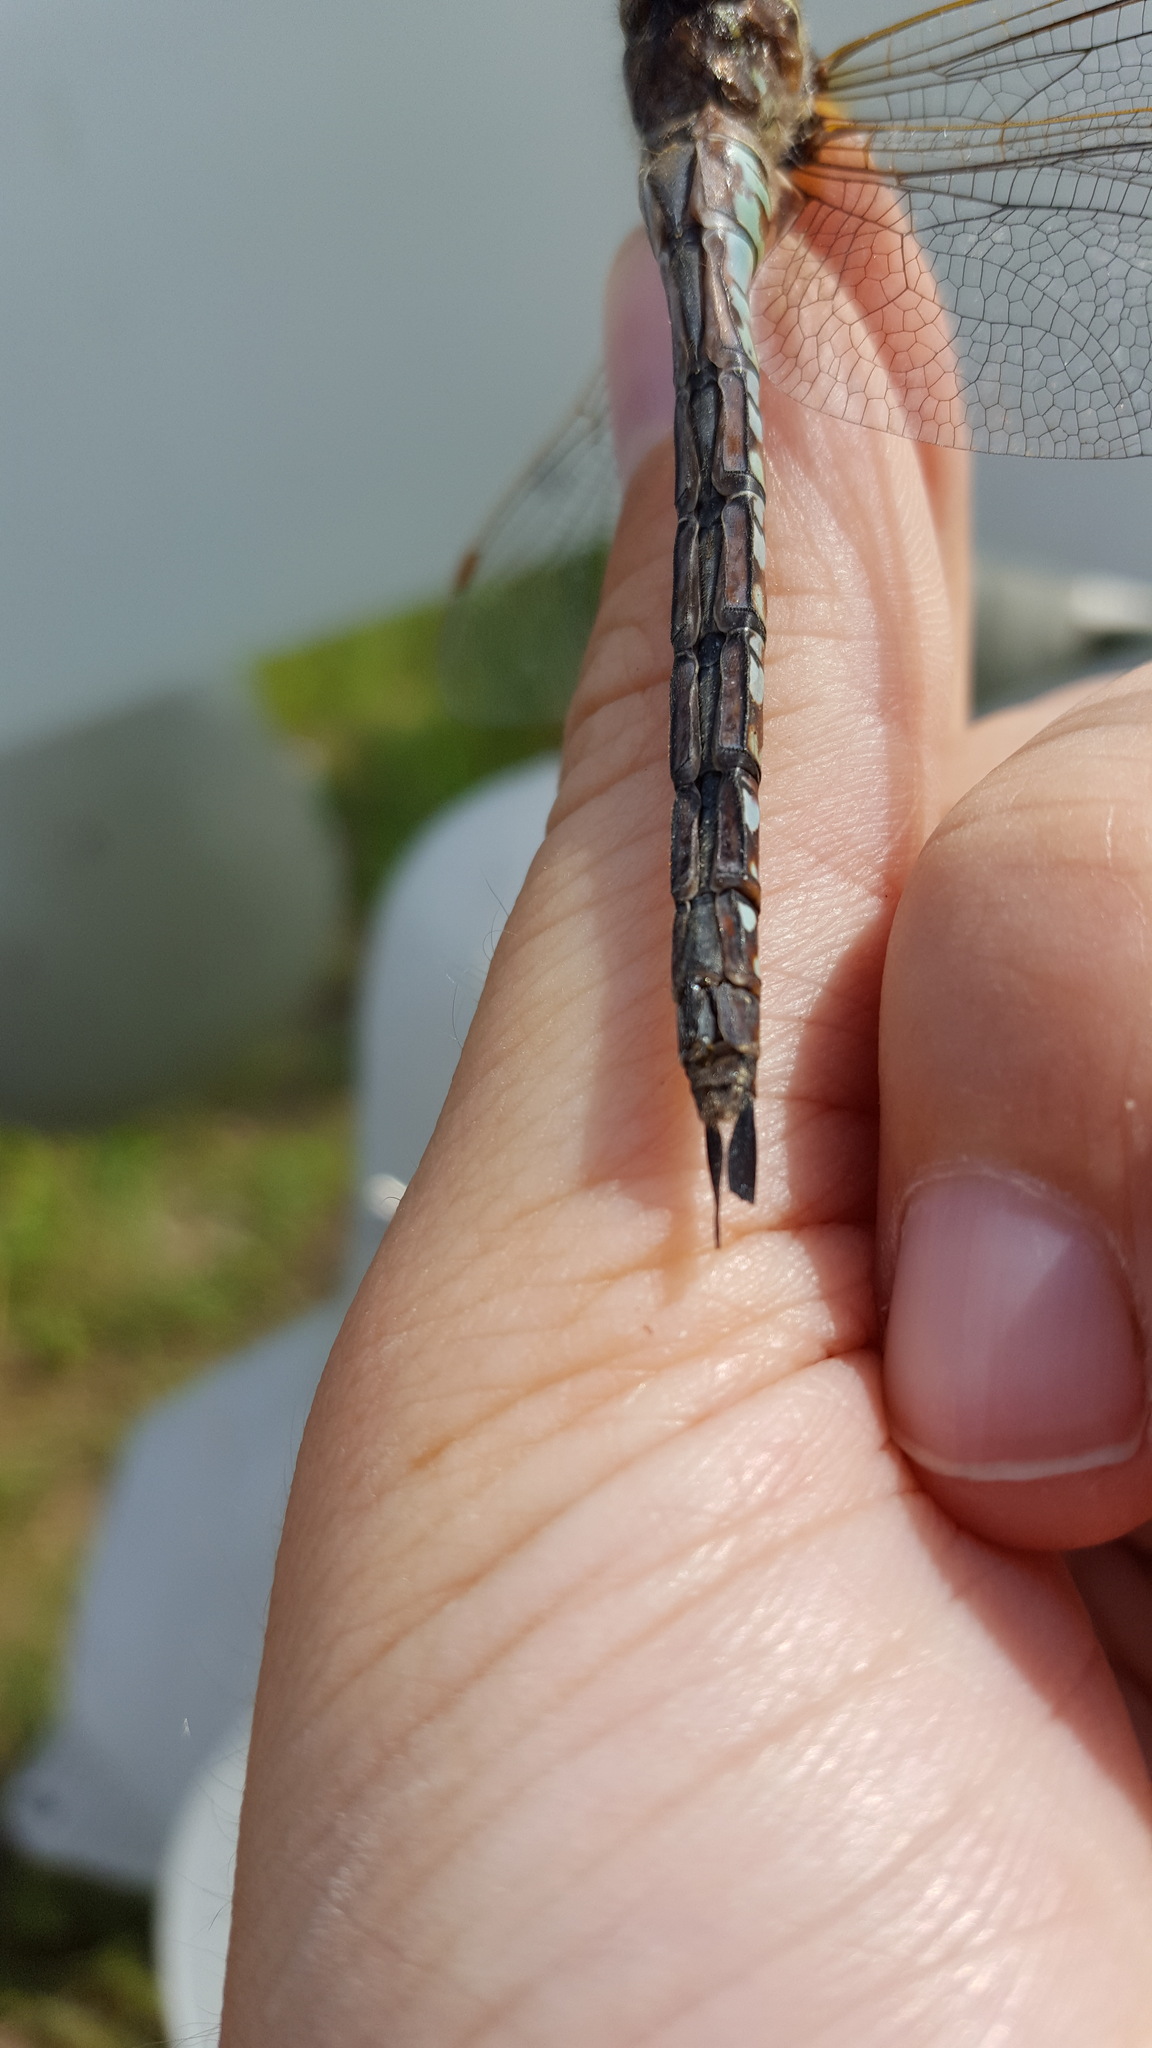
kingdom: Animalia
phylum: Arthropoda
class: Insecta
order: Odonata
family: Aeshnidae
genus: Aeshna
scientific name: Aeshna interrupta
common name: Variable darner
